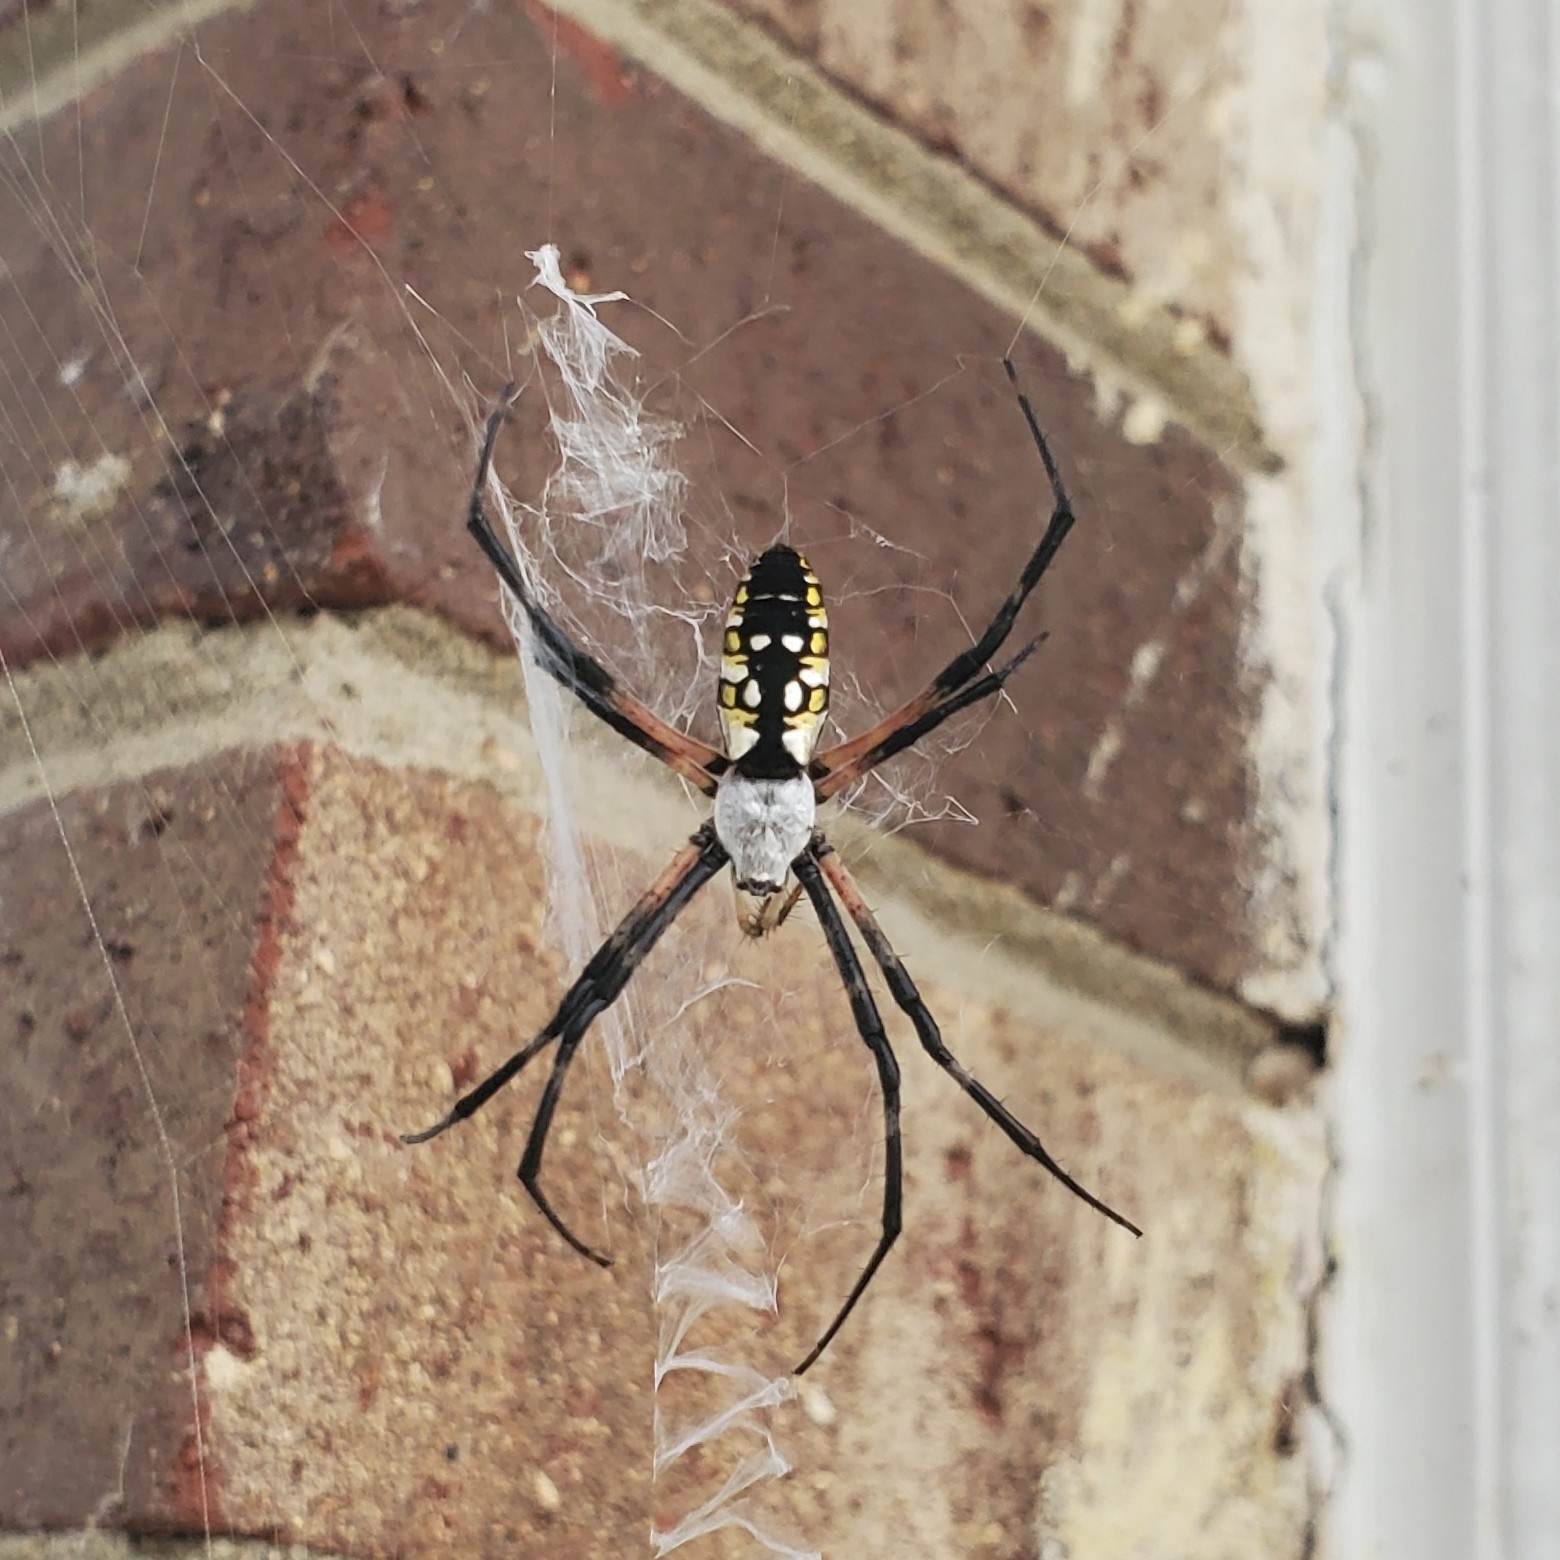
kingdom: Animalia
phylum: Arthropoda
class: Arachnida
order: Araneae
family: Araneidae
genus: Argiope
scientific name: Argiope aurantia
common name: Orb weavers
